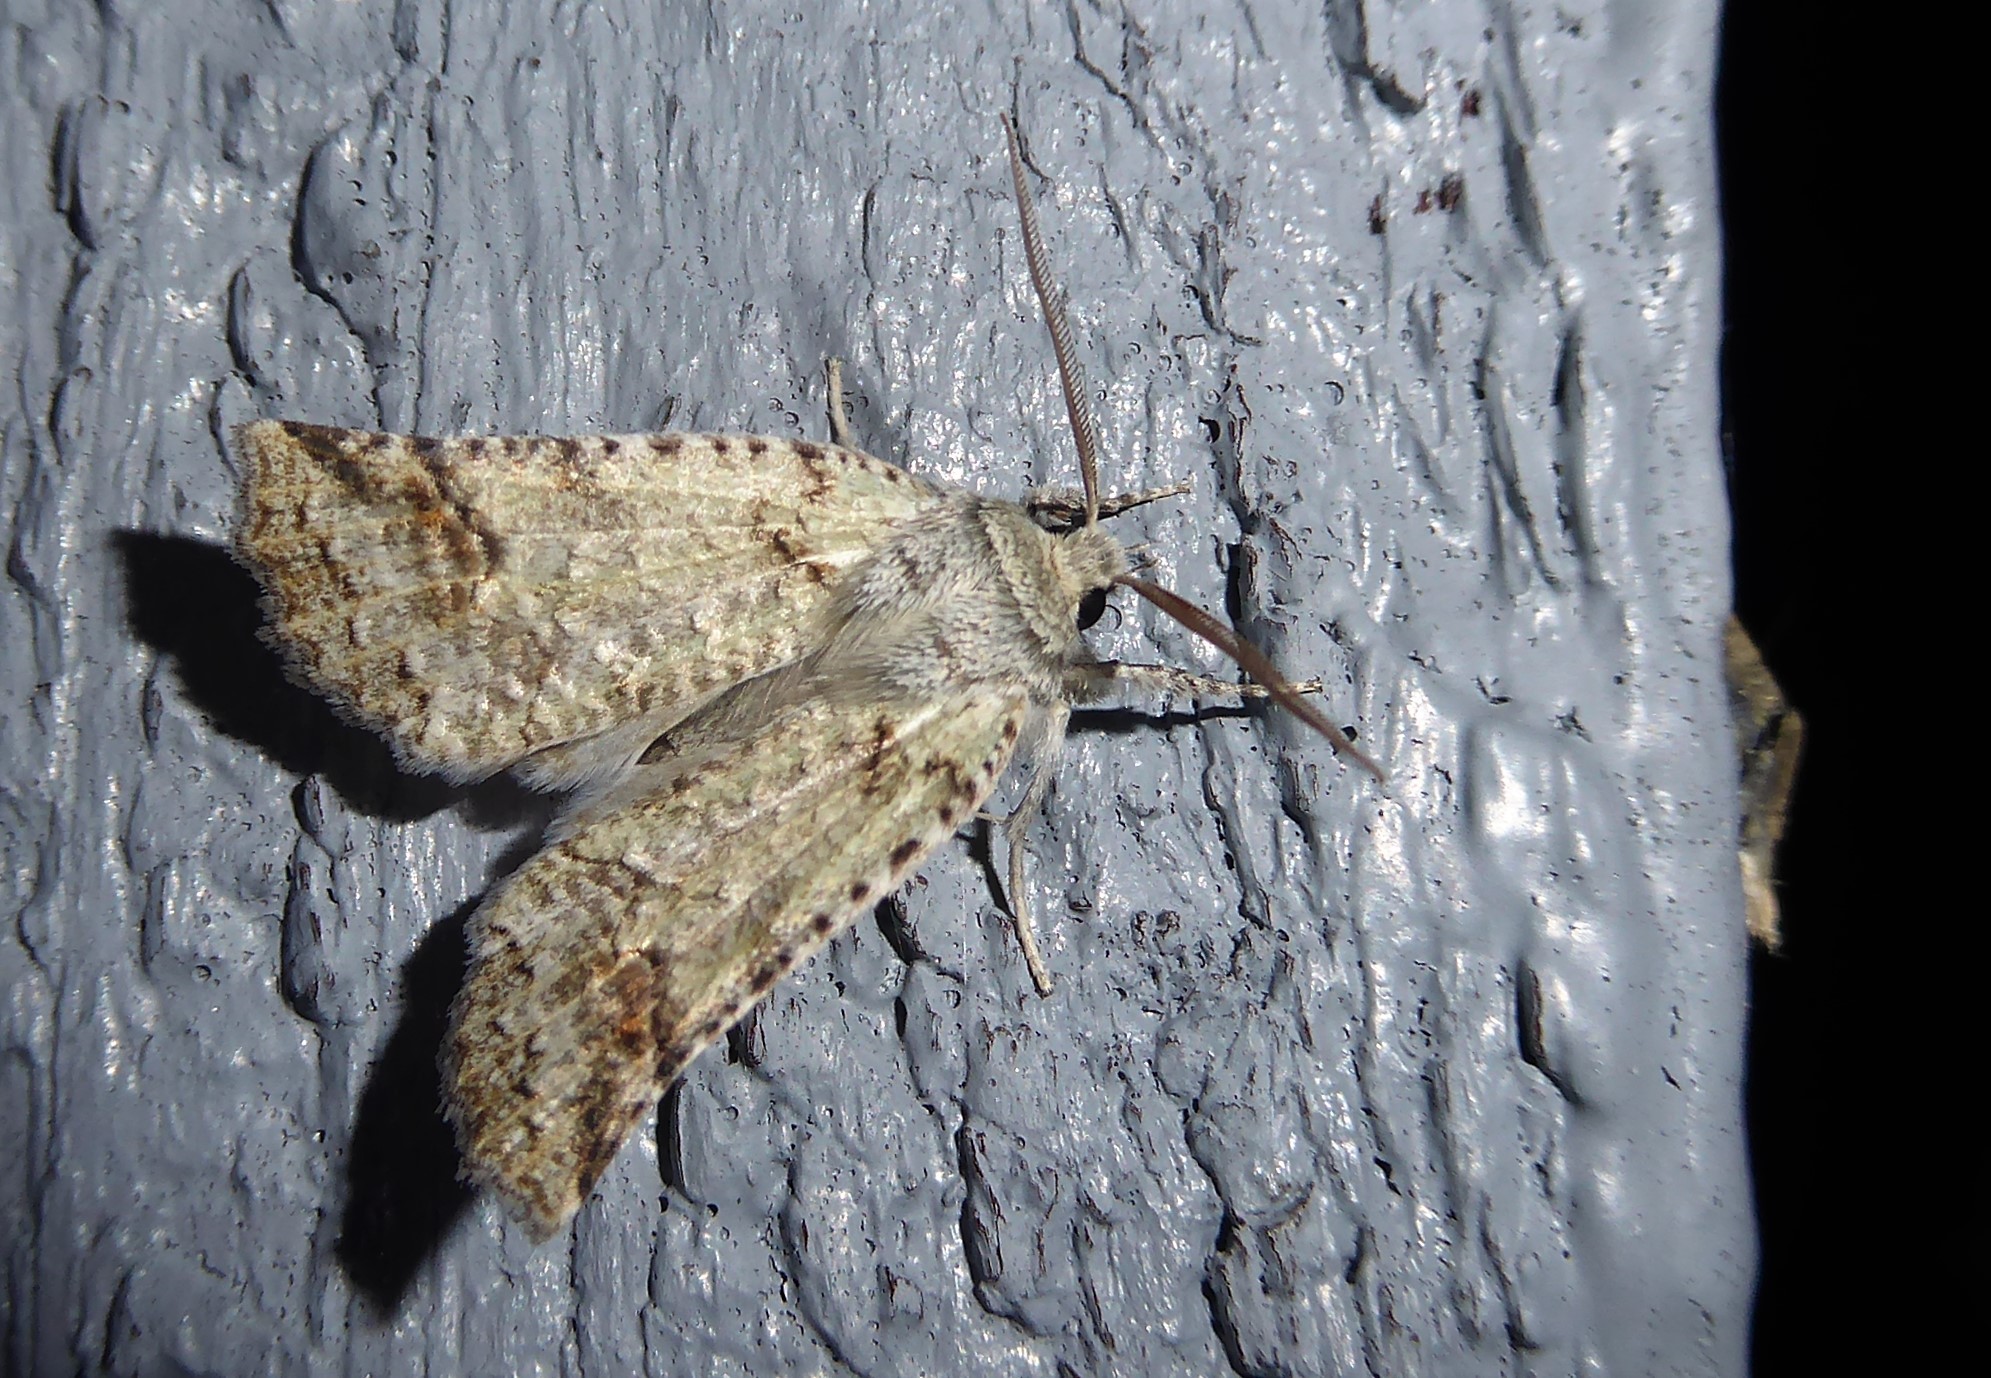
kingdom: Animalia
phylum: Arthropoda
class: Insecta
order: Lepidoptera
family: Geometridae
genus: Declana
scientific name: Declana floccosa
